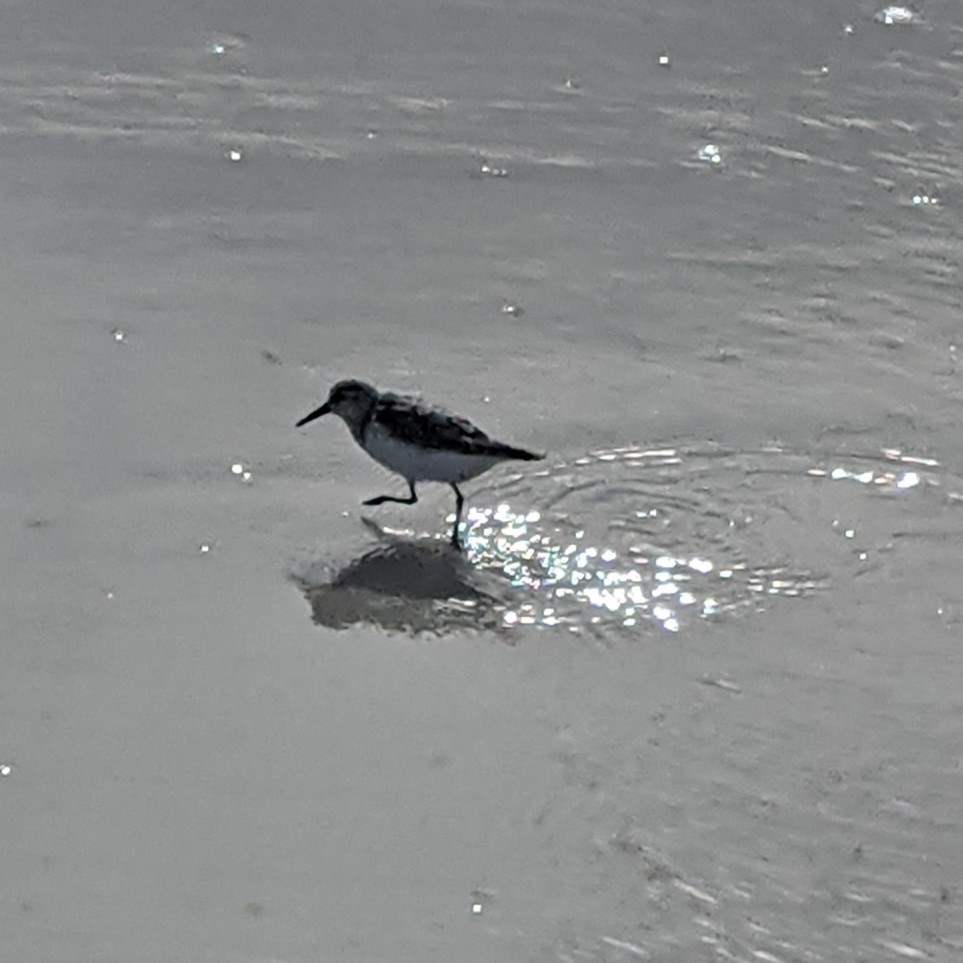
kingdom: Animalia
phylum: Chordata
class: Aves
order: Charadriiformes
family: Scolopacidae
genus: Calidris
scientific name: Calidris alba
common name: Sanderling
